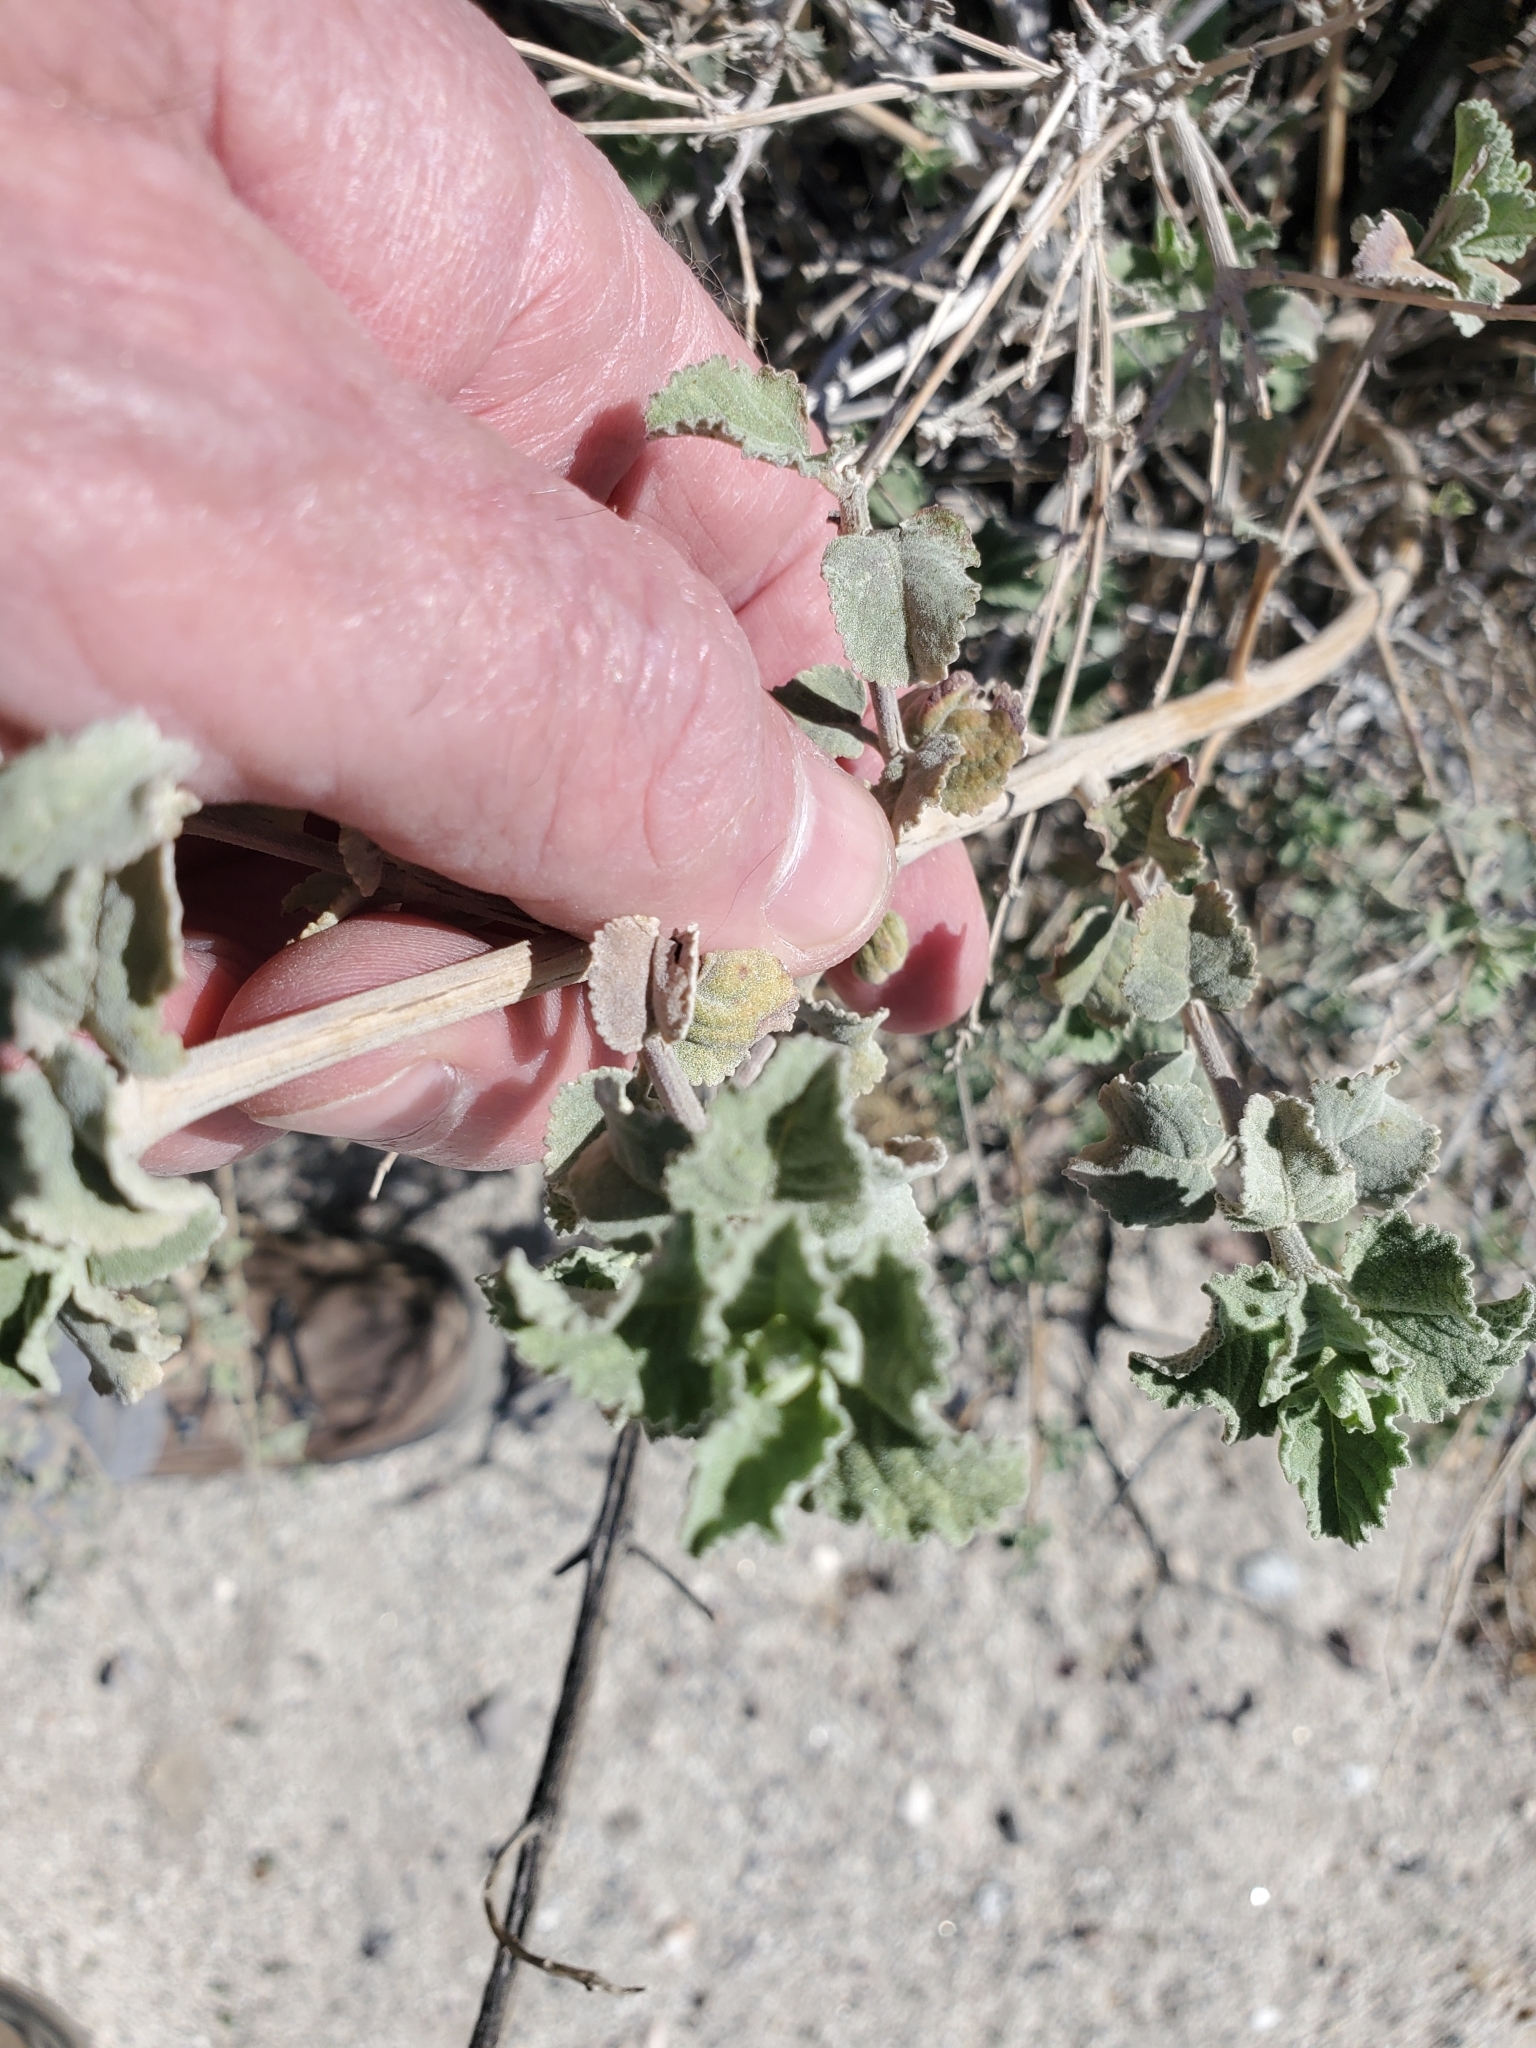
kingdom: Plantae
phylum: Tracheophyta
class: Magnoliopsida
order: Lamiales
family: Lamiaceae
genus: Condea
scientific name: Condea emoryi
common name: Chia
